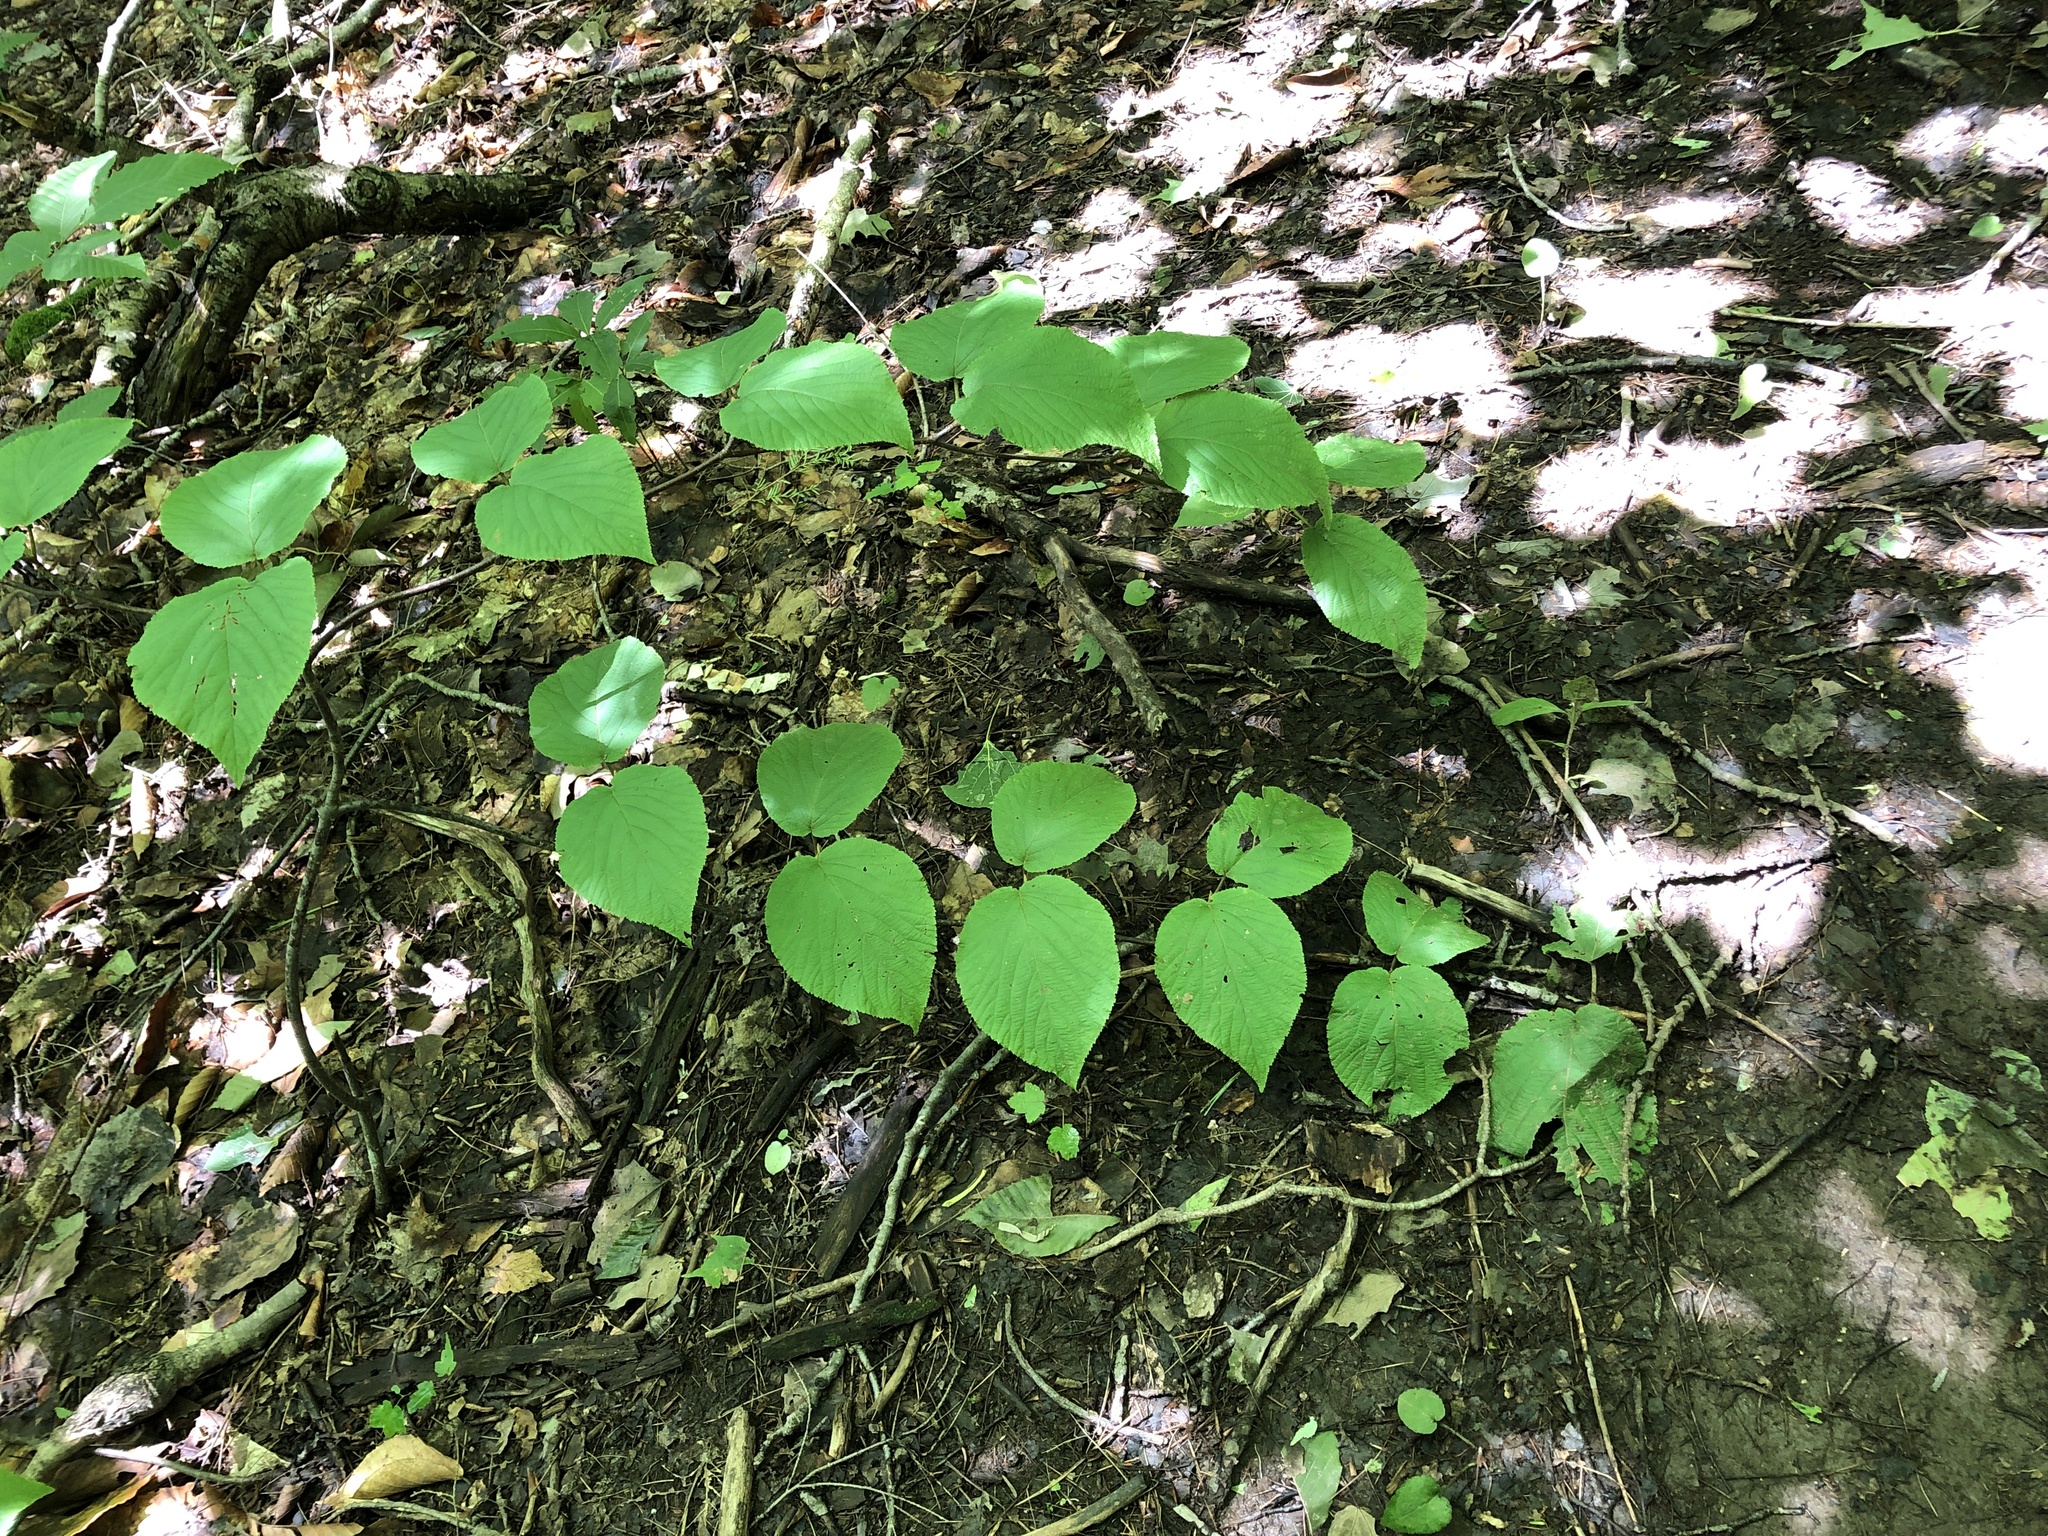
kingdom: Plantae
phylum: Tracheophyta
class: Magnoliopsida
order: Dipsacales
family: Viburnaceae
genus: Viburnum
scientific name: Viburnum lantanoides
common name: Hobblebush
